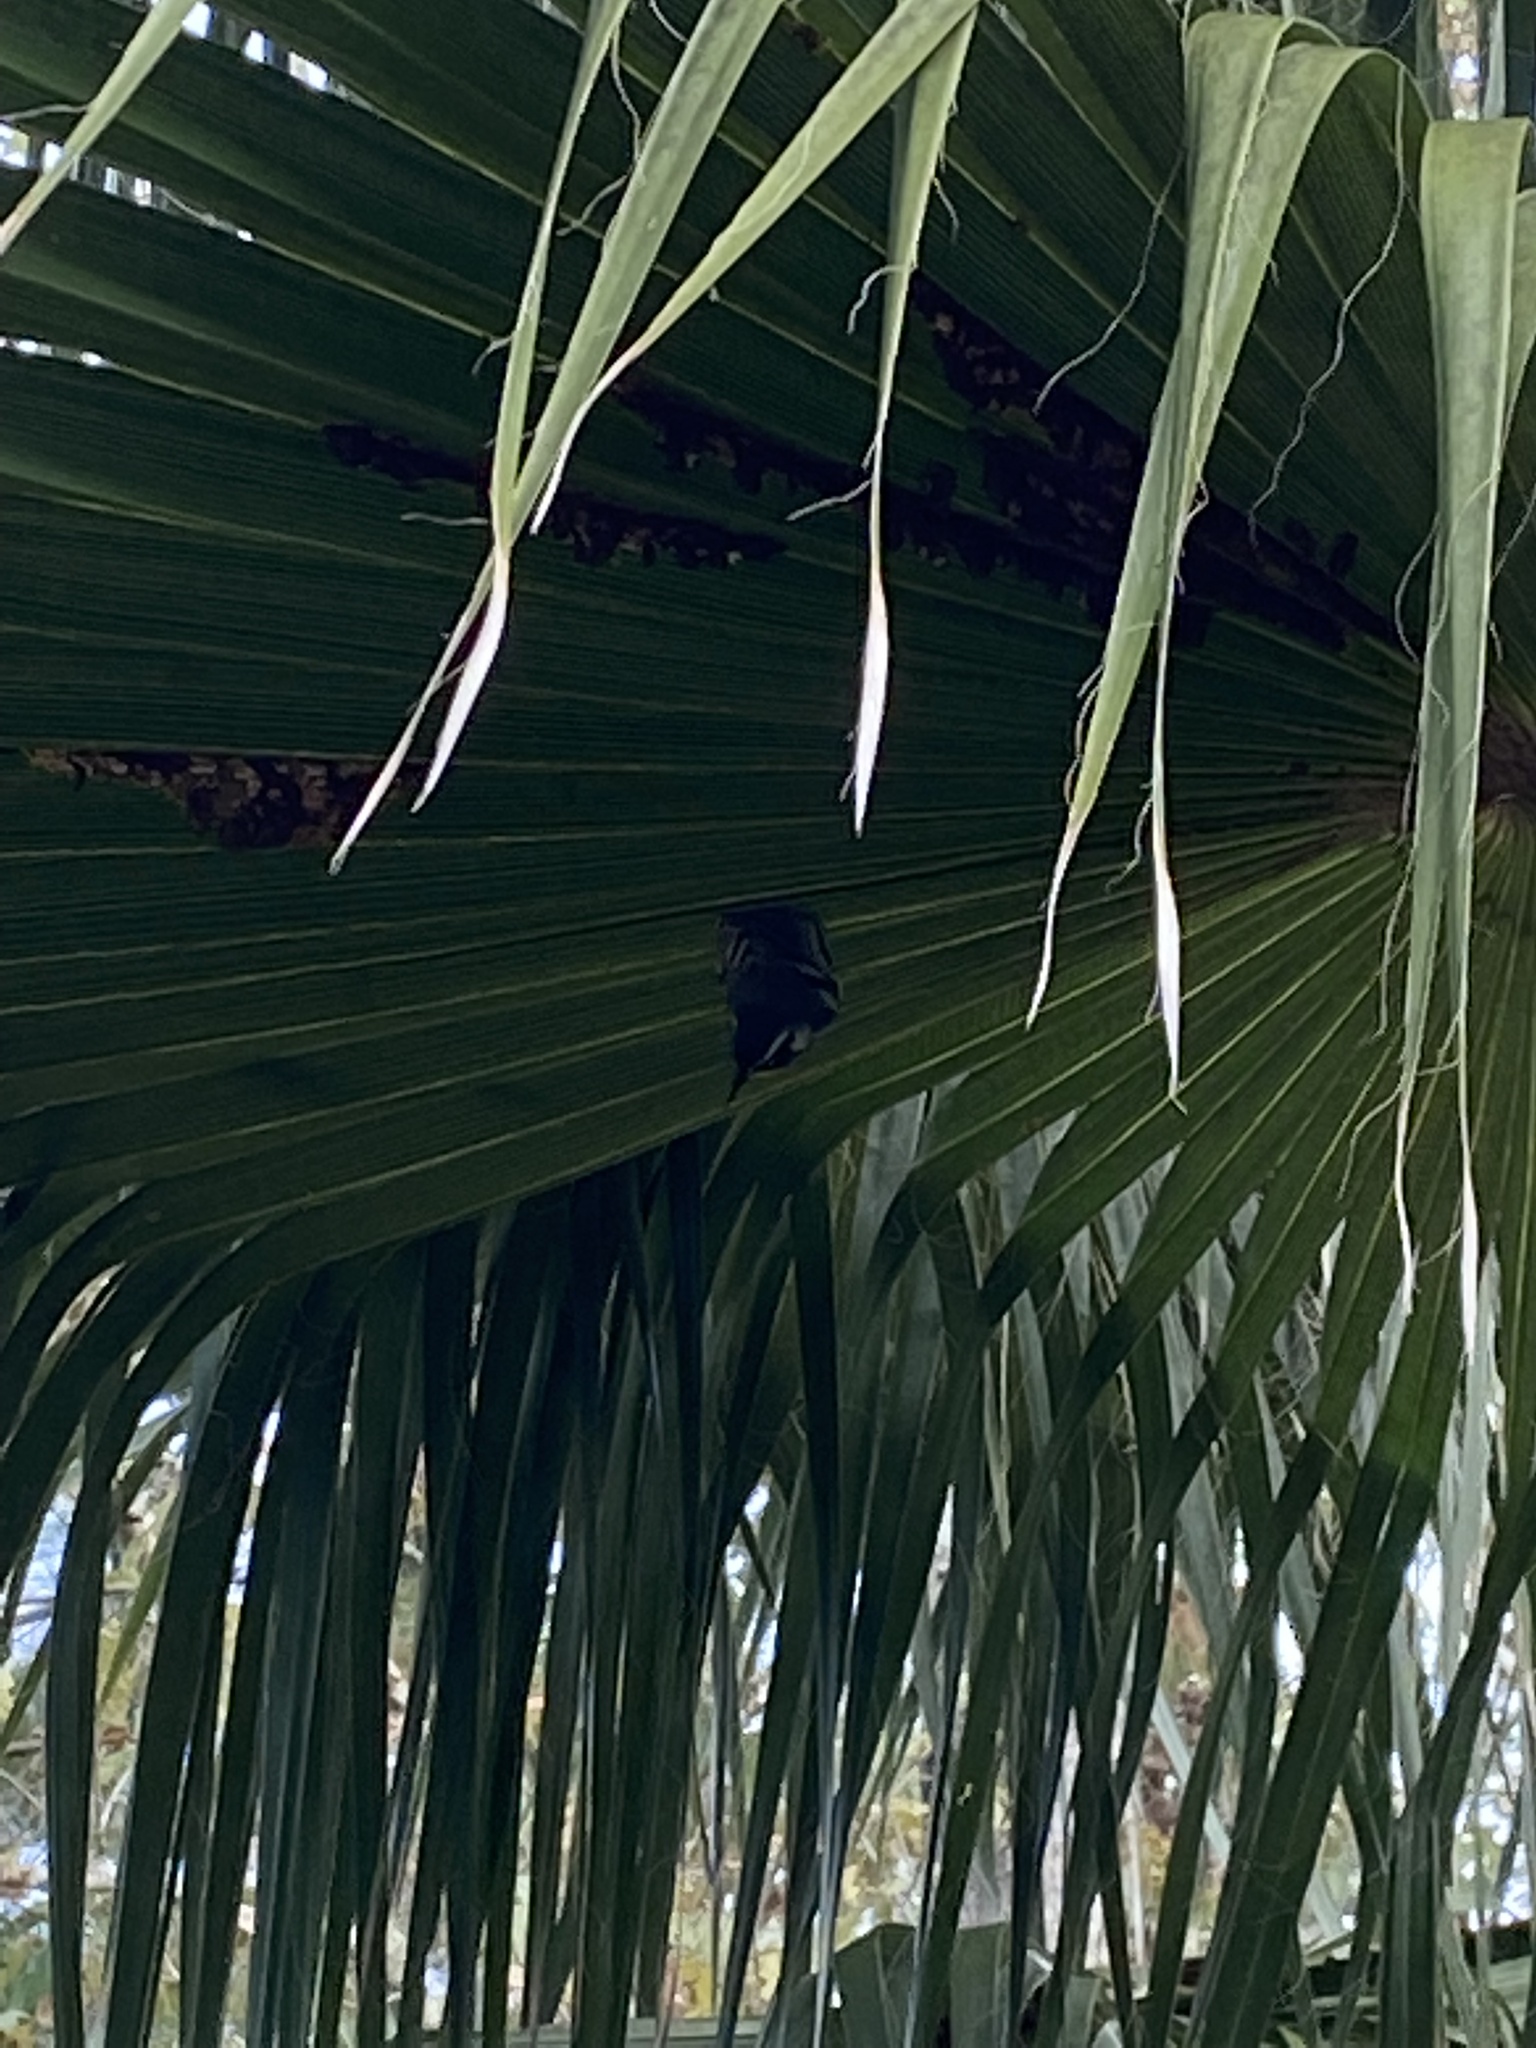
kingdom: Animalia
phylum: Chordata
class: Aves
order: Passeriformes
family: Parulidae
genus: Setophaga
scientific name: Setophaga dominica
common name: Yellow-throated warbler
